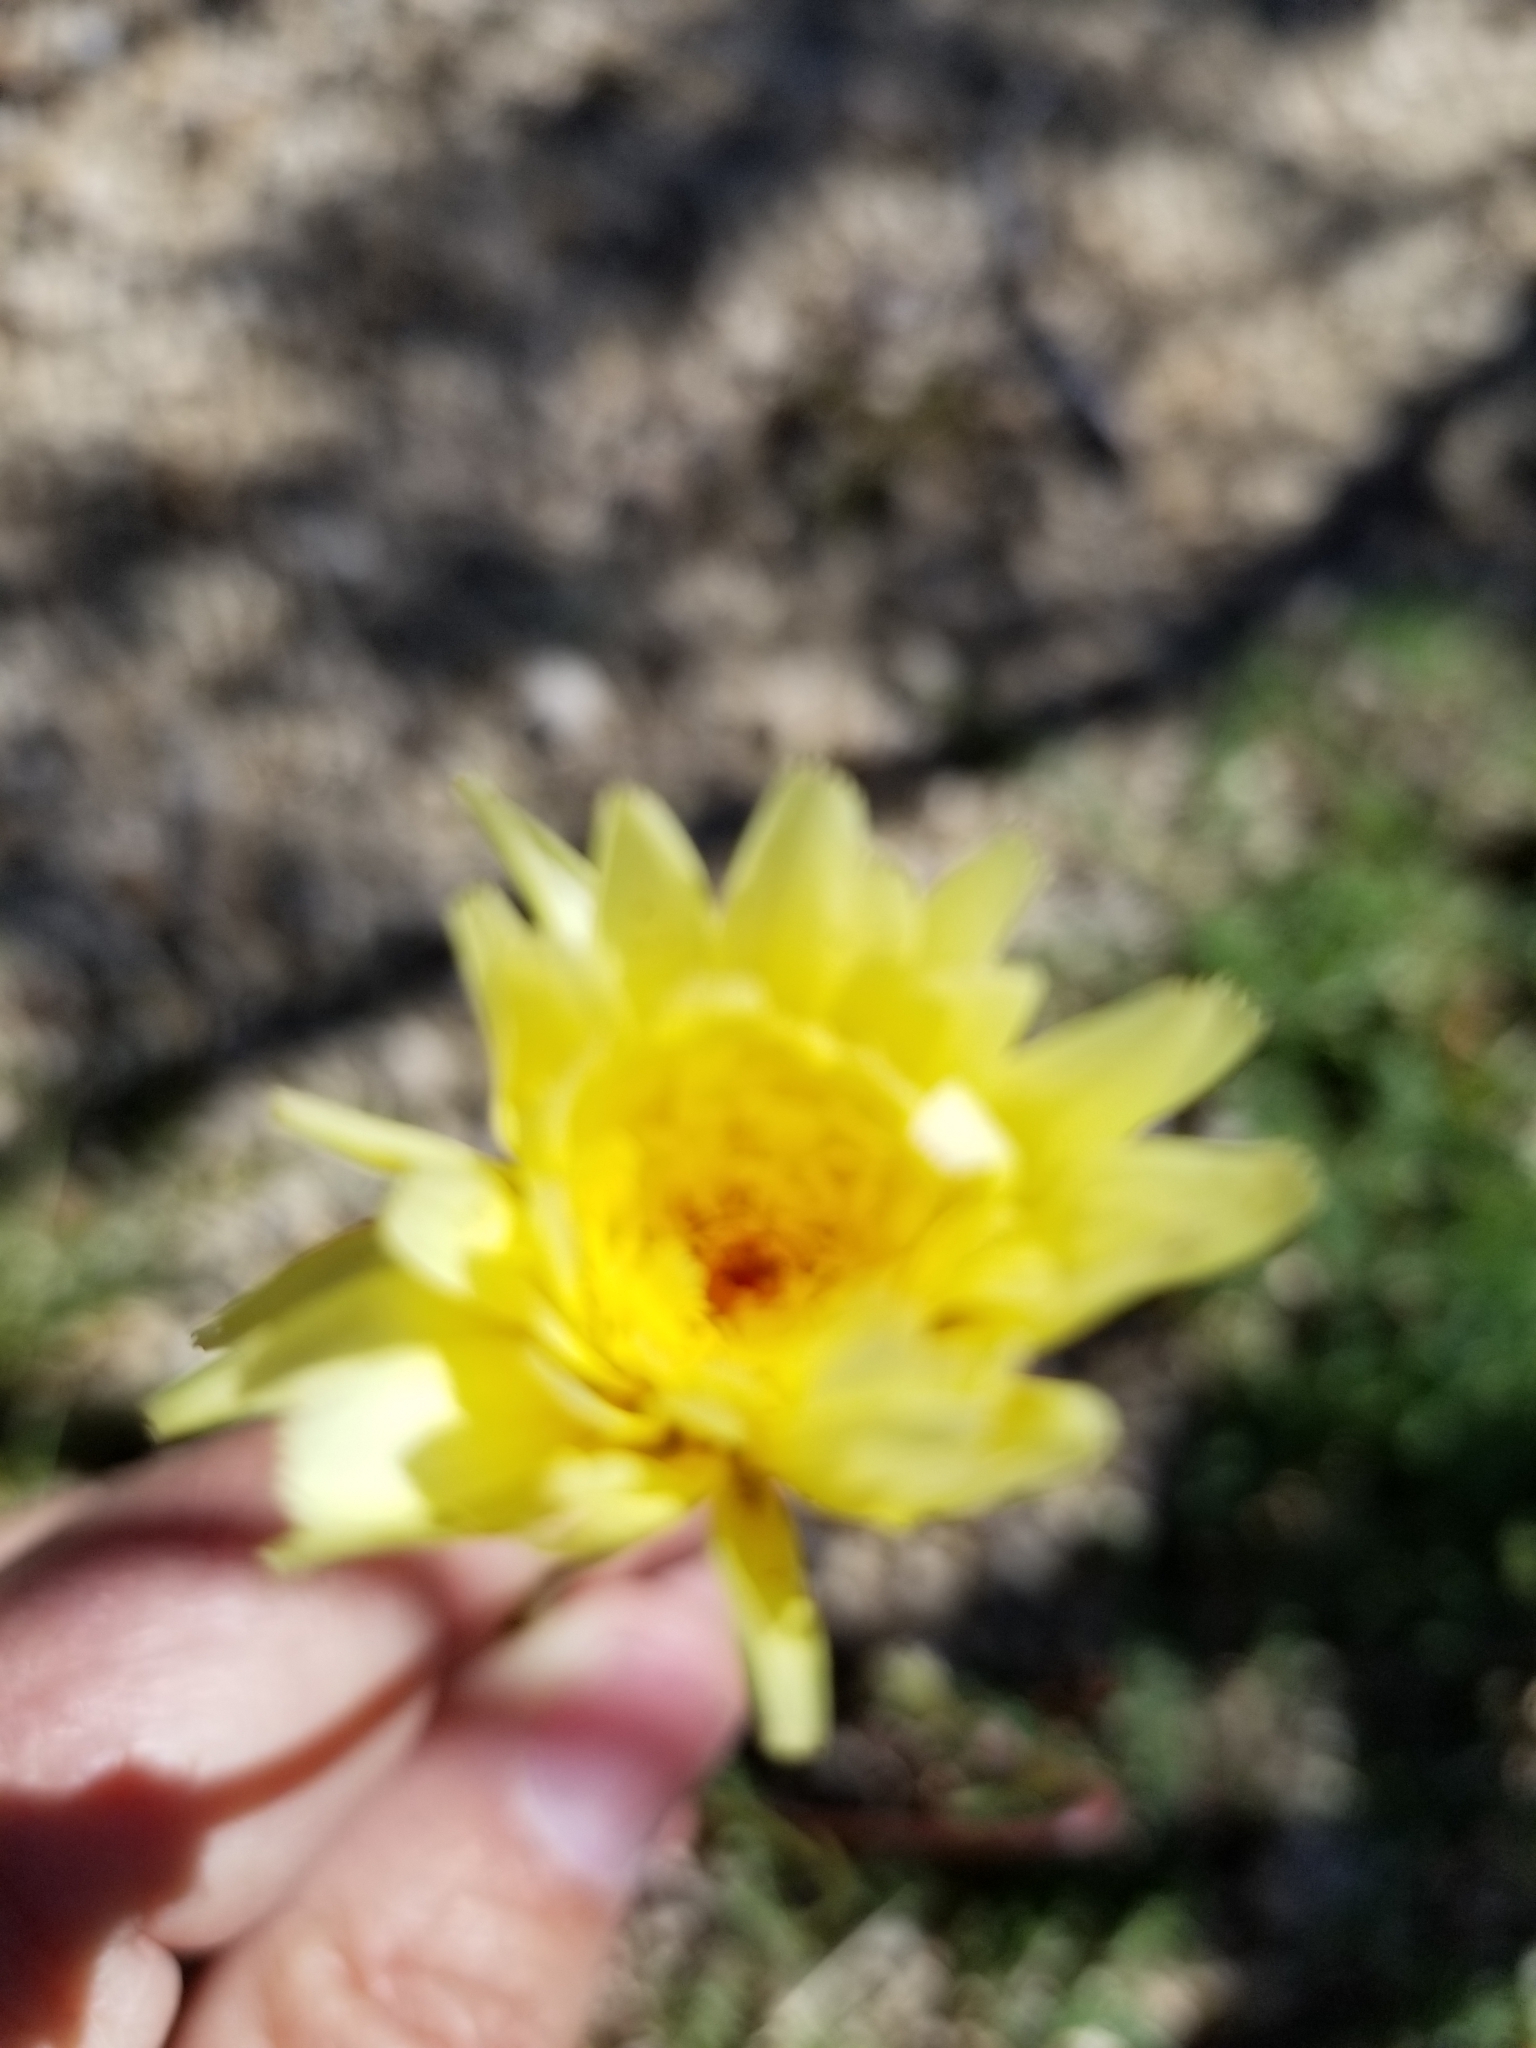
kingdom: Plantae
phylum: Tracheophyta
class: Magnoliopsida
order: Asterales
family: Asteraceae
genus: Malacothrix
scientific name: Malacothrix glabrata
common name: Smooth desert-dandelion
